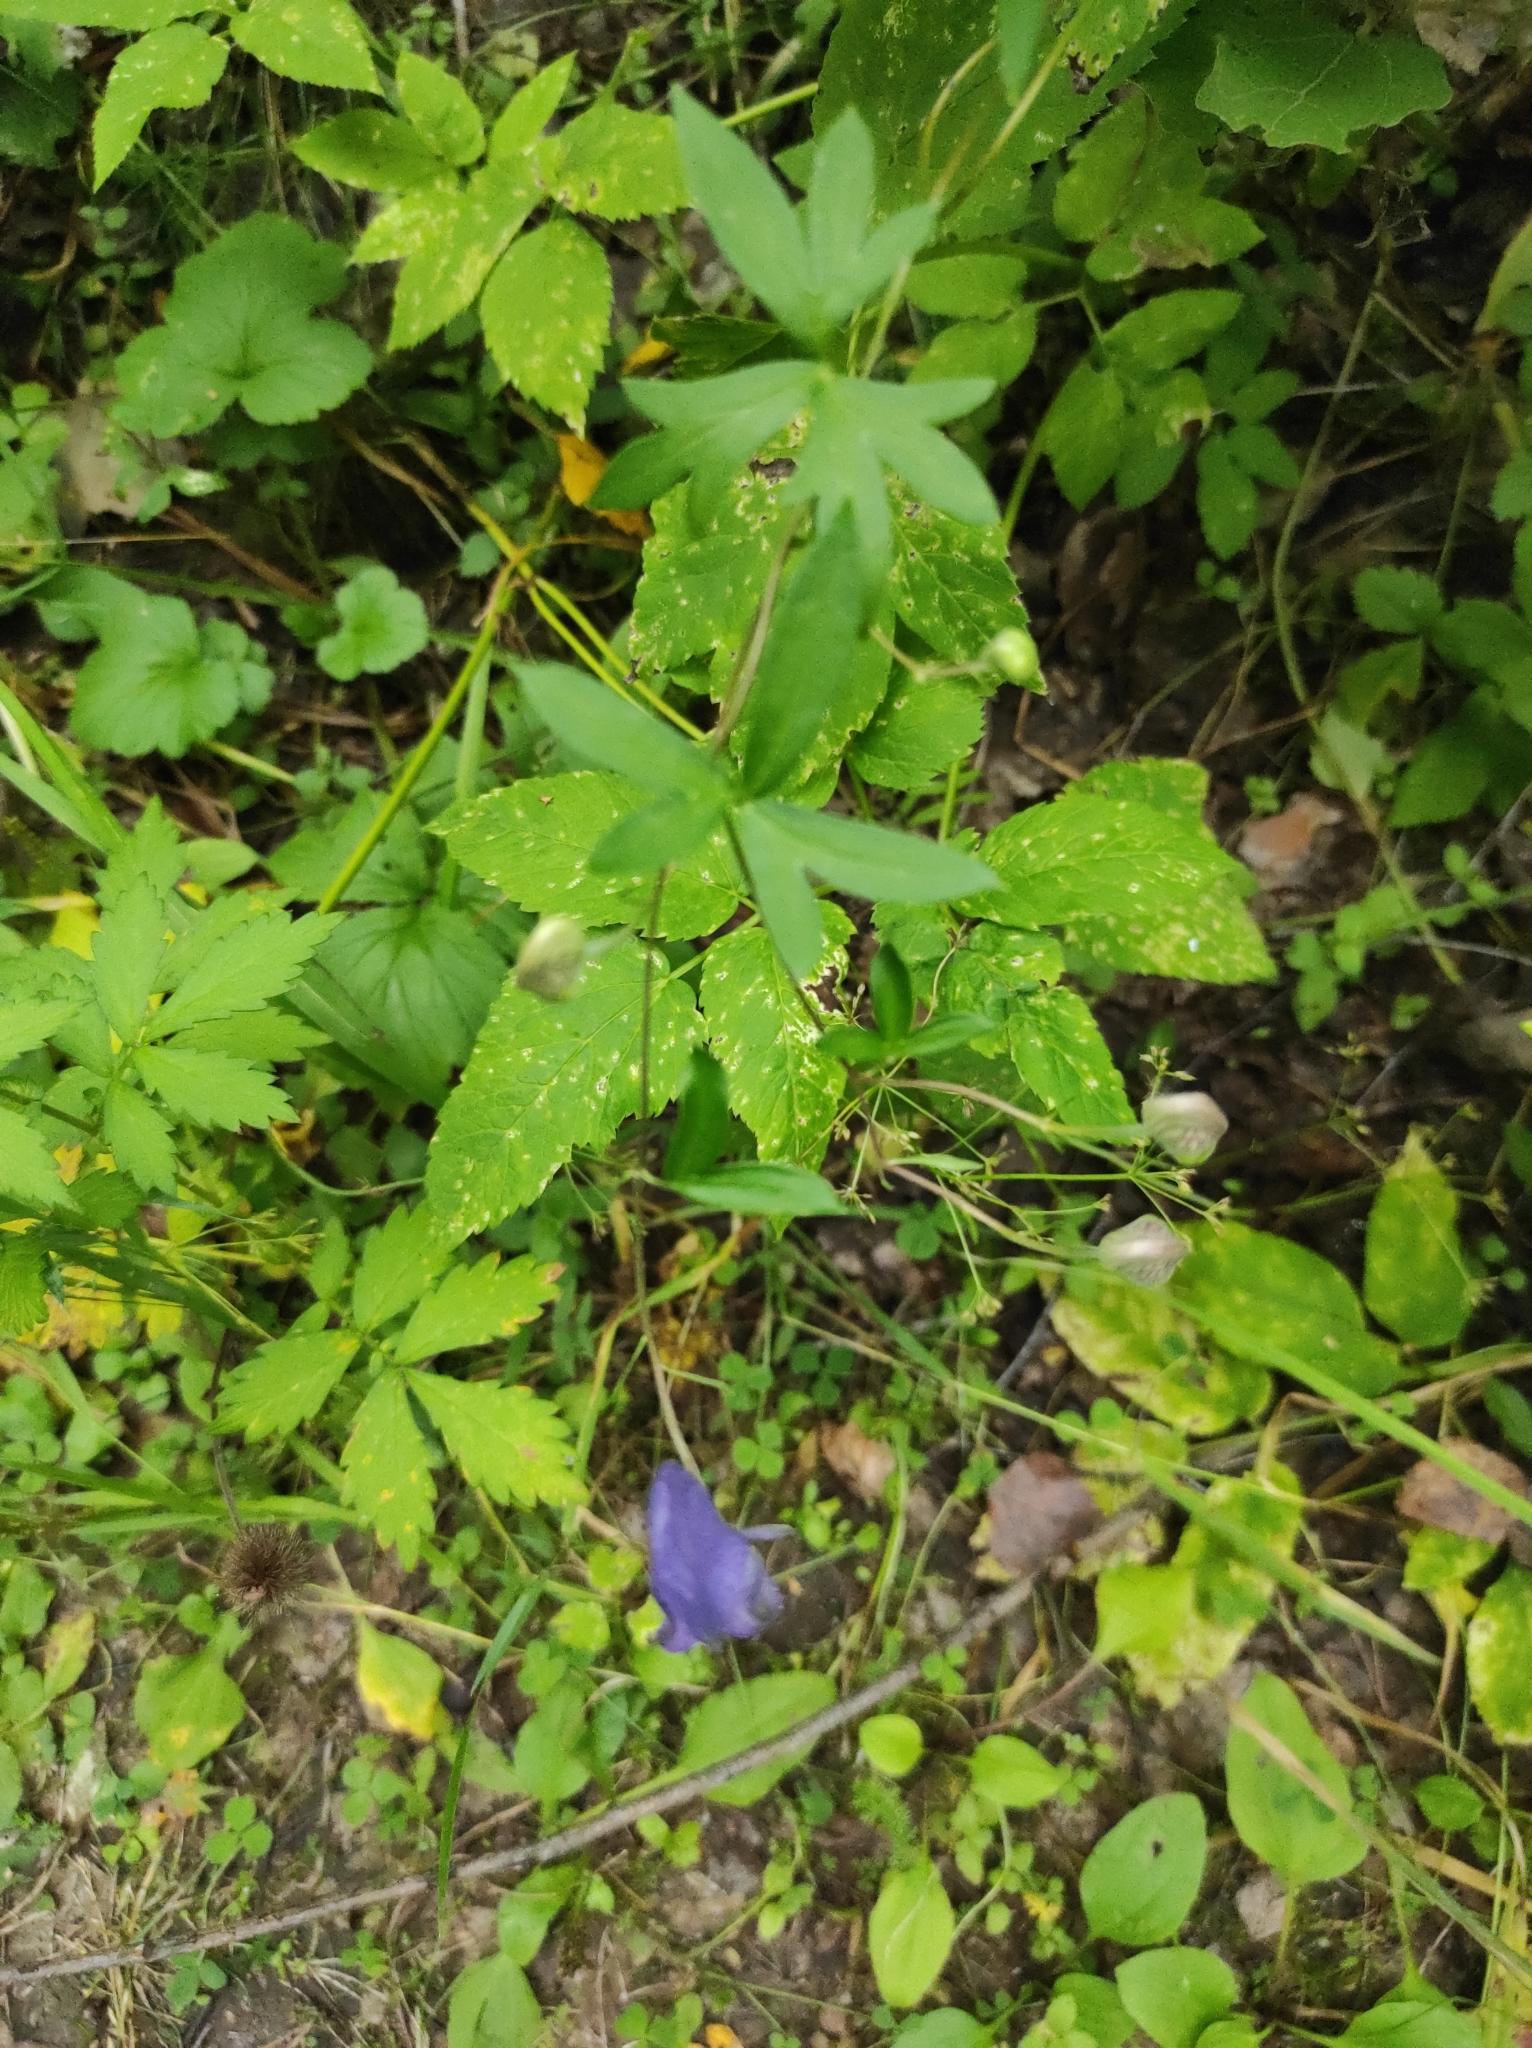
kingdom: Plantae
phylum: Tracheophyta
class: Magnoliopsida
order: Ranunculales
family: Ranunculaceae
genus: Aconitum
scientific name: Aconitum volubile
